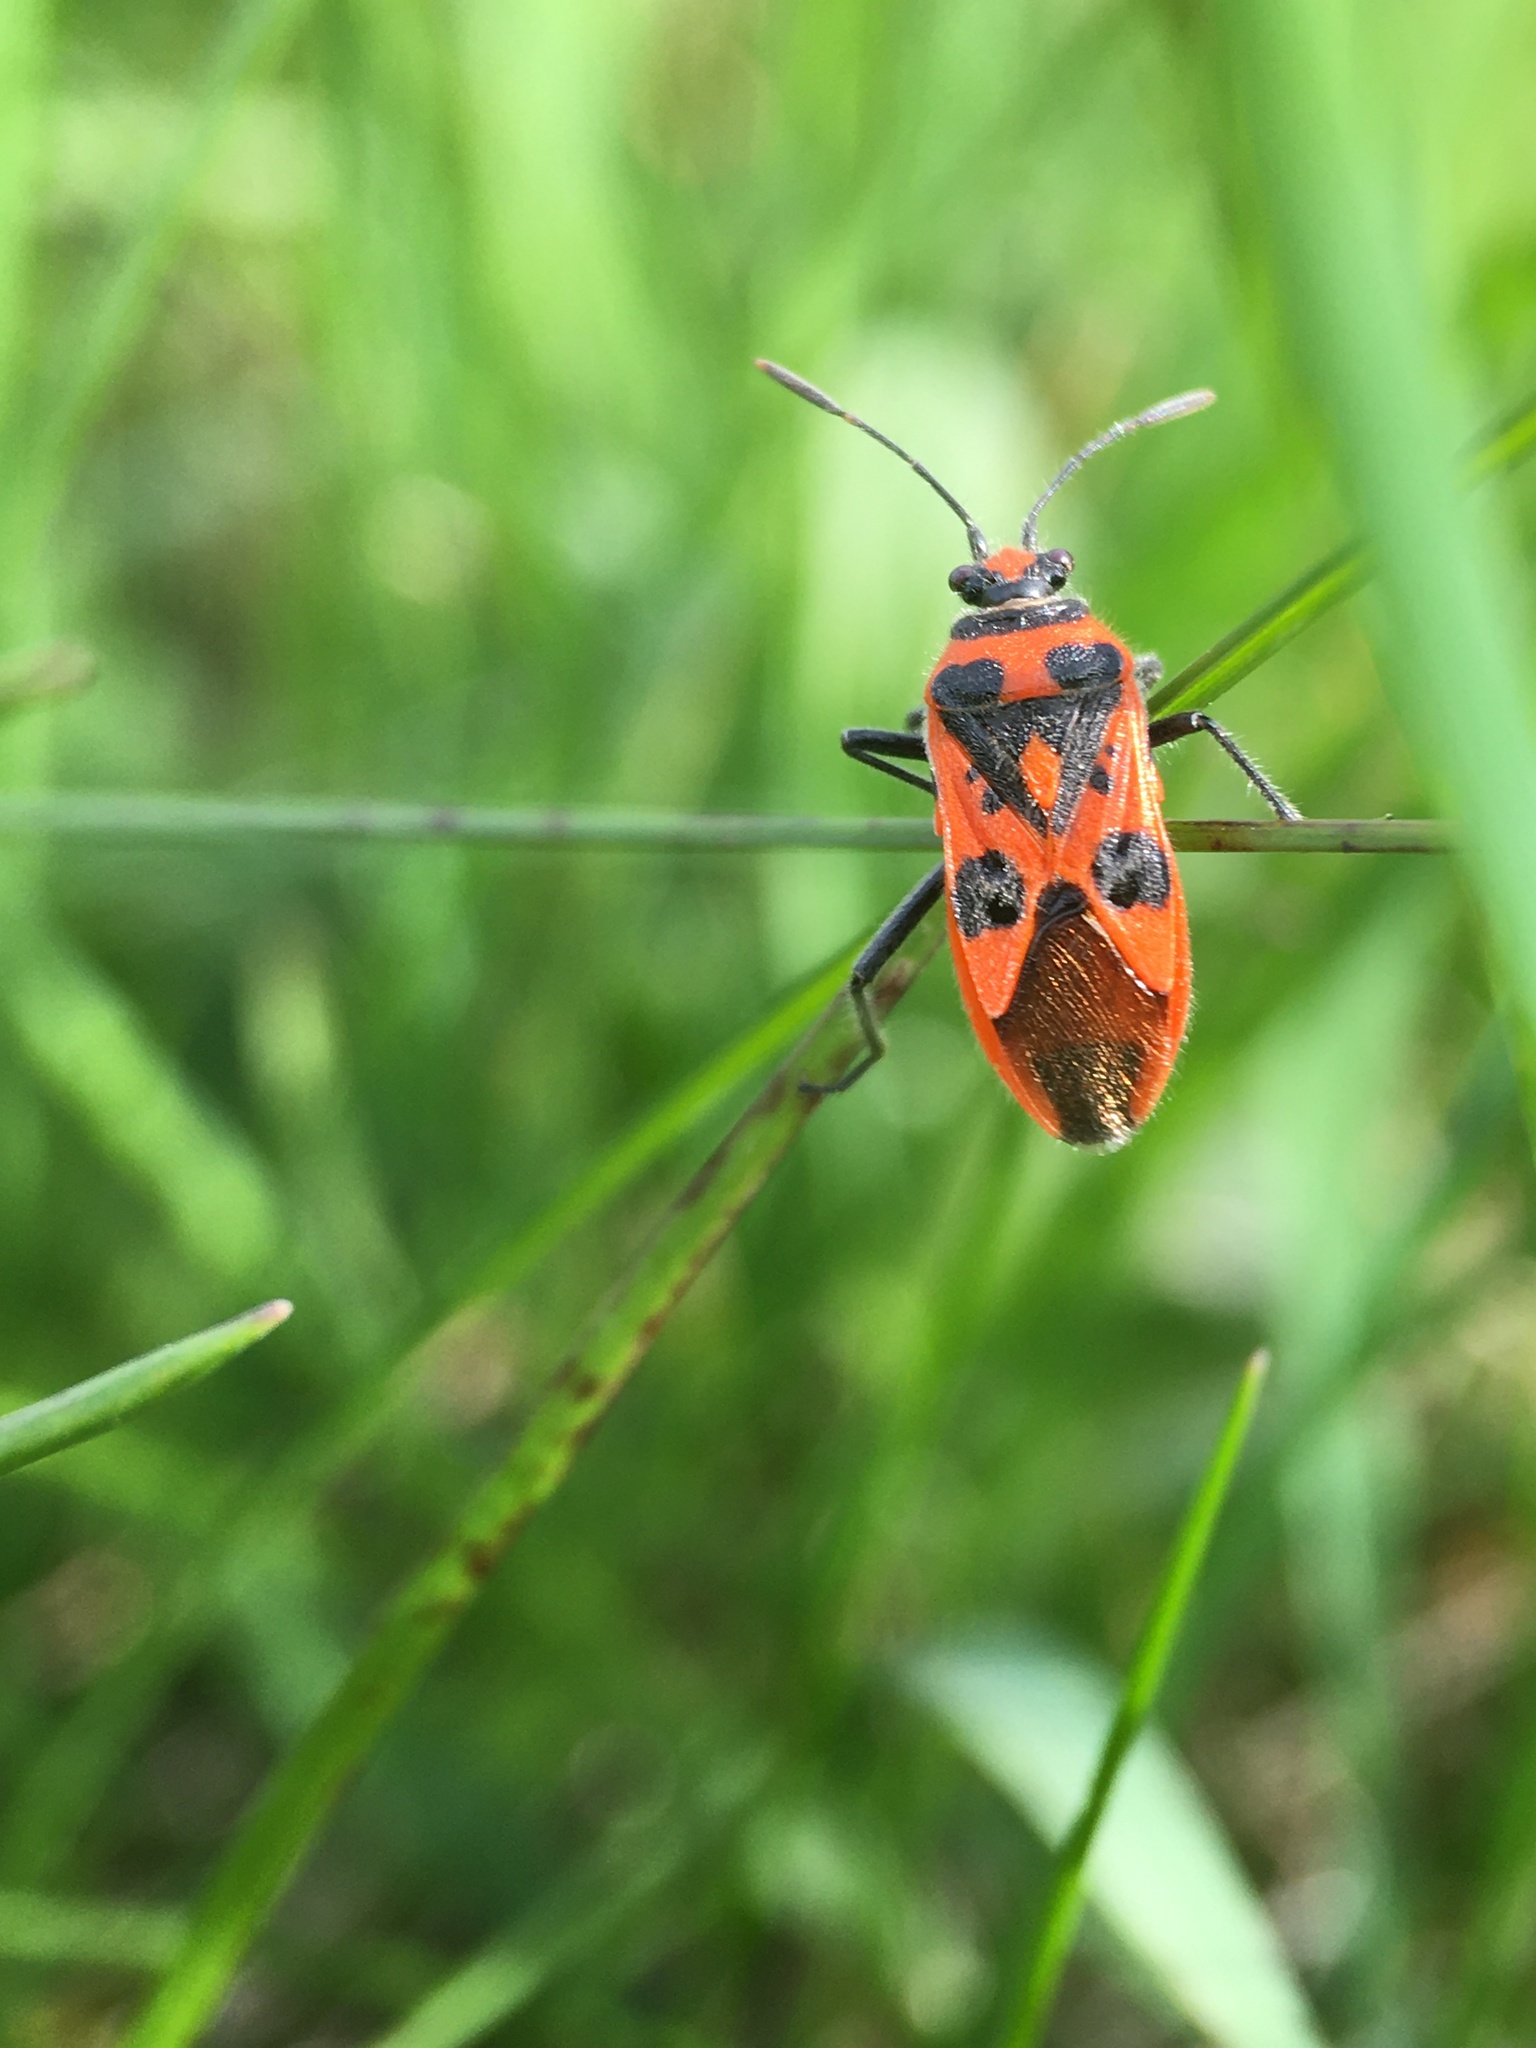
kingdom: Animalia
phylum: Arthropoda
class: Insecta
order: Hemiptera
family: Rhopalidae
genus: Corizus
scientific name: Corizus hyoscyami
